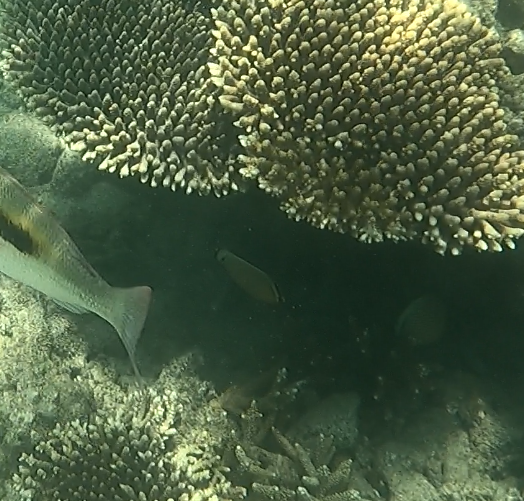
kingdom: Animalia
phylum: Chordata
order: Perciformes
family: Chaetodontidae
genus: Chaetodon
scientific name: Chaetodon lunulatus
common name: Redfin butterflyfish
